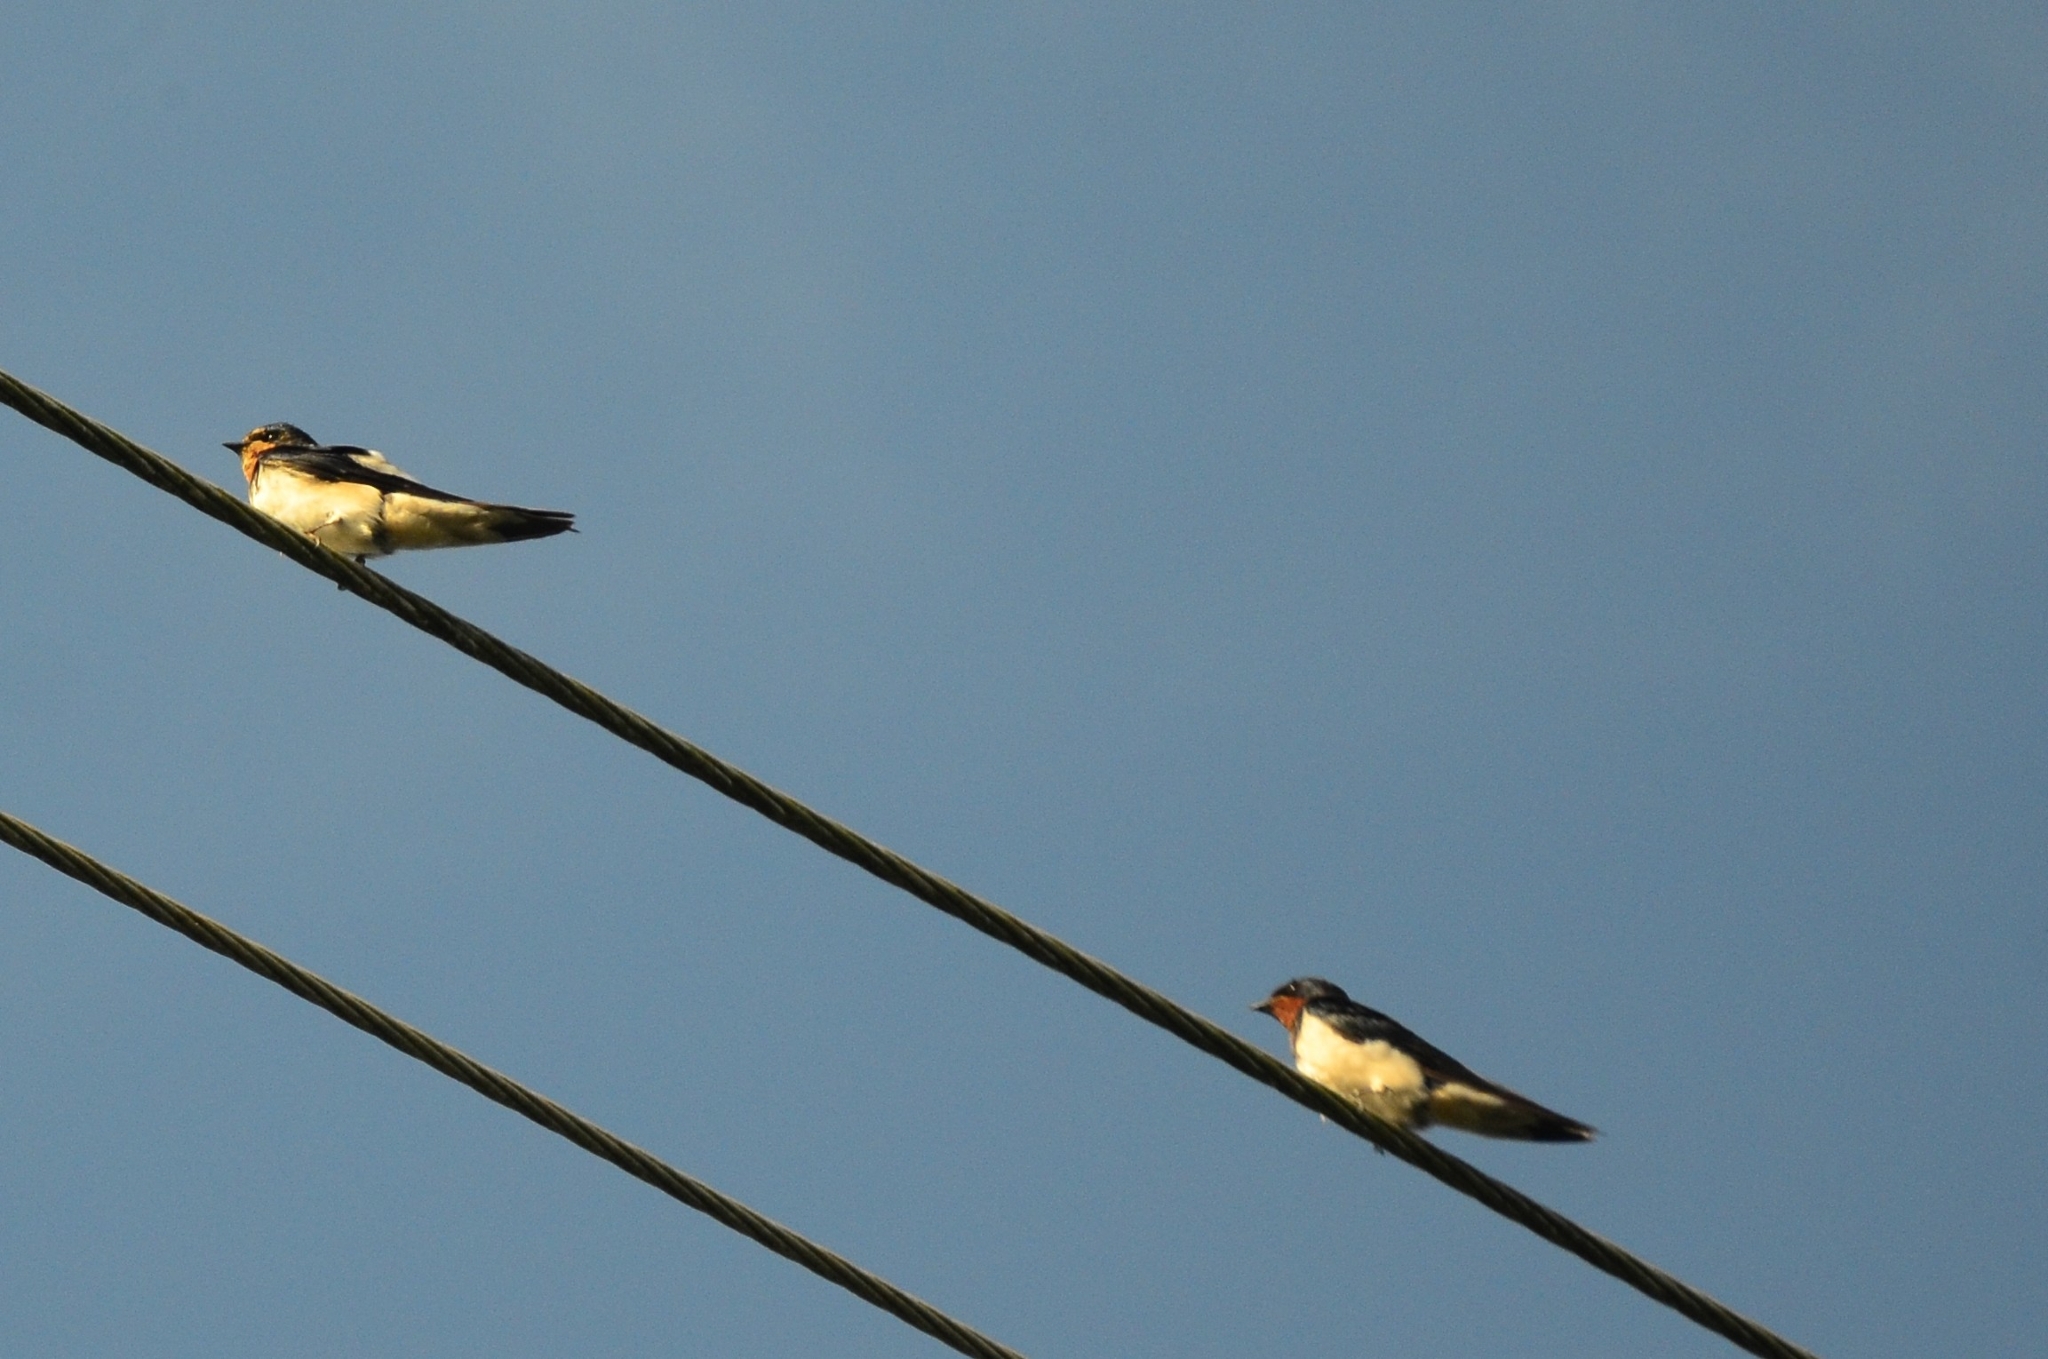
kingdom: Animalia
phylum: Chordata
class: Aves
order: Passeriformes
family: Hirundinidae
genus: Hirundo
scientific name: Hirundo rustica
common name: Barn swallow
